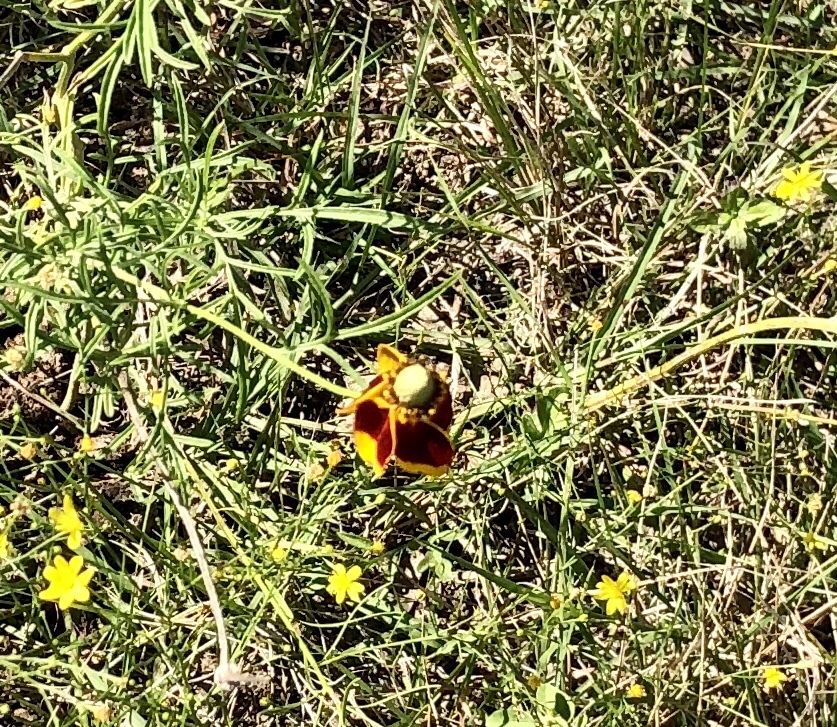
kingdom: Plantae
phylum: Tracheophyta
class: Magnoliopsida
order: Asterales
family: Asteraceae
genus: Ratibida
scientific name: Ratibida columnifera
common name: Prairie coneflower
